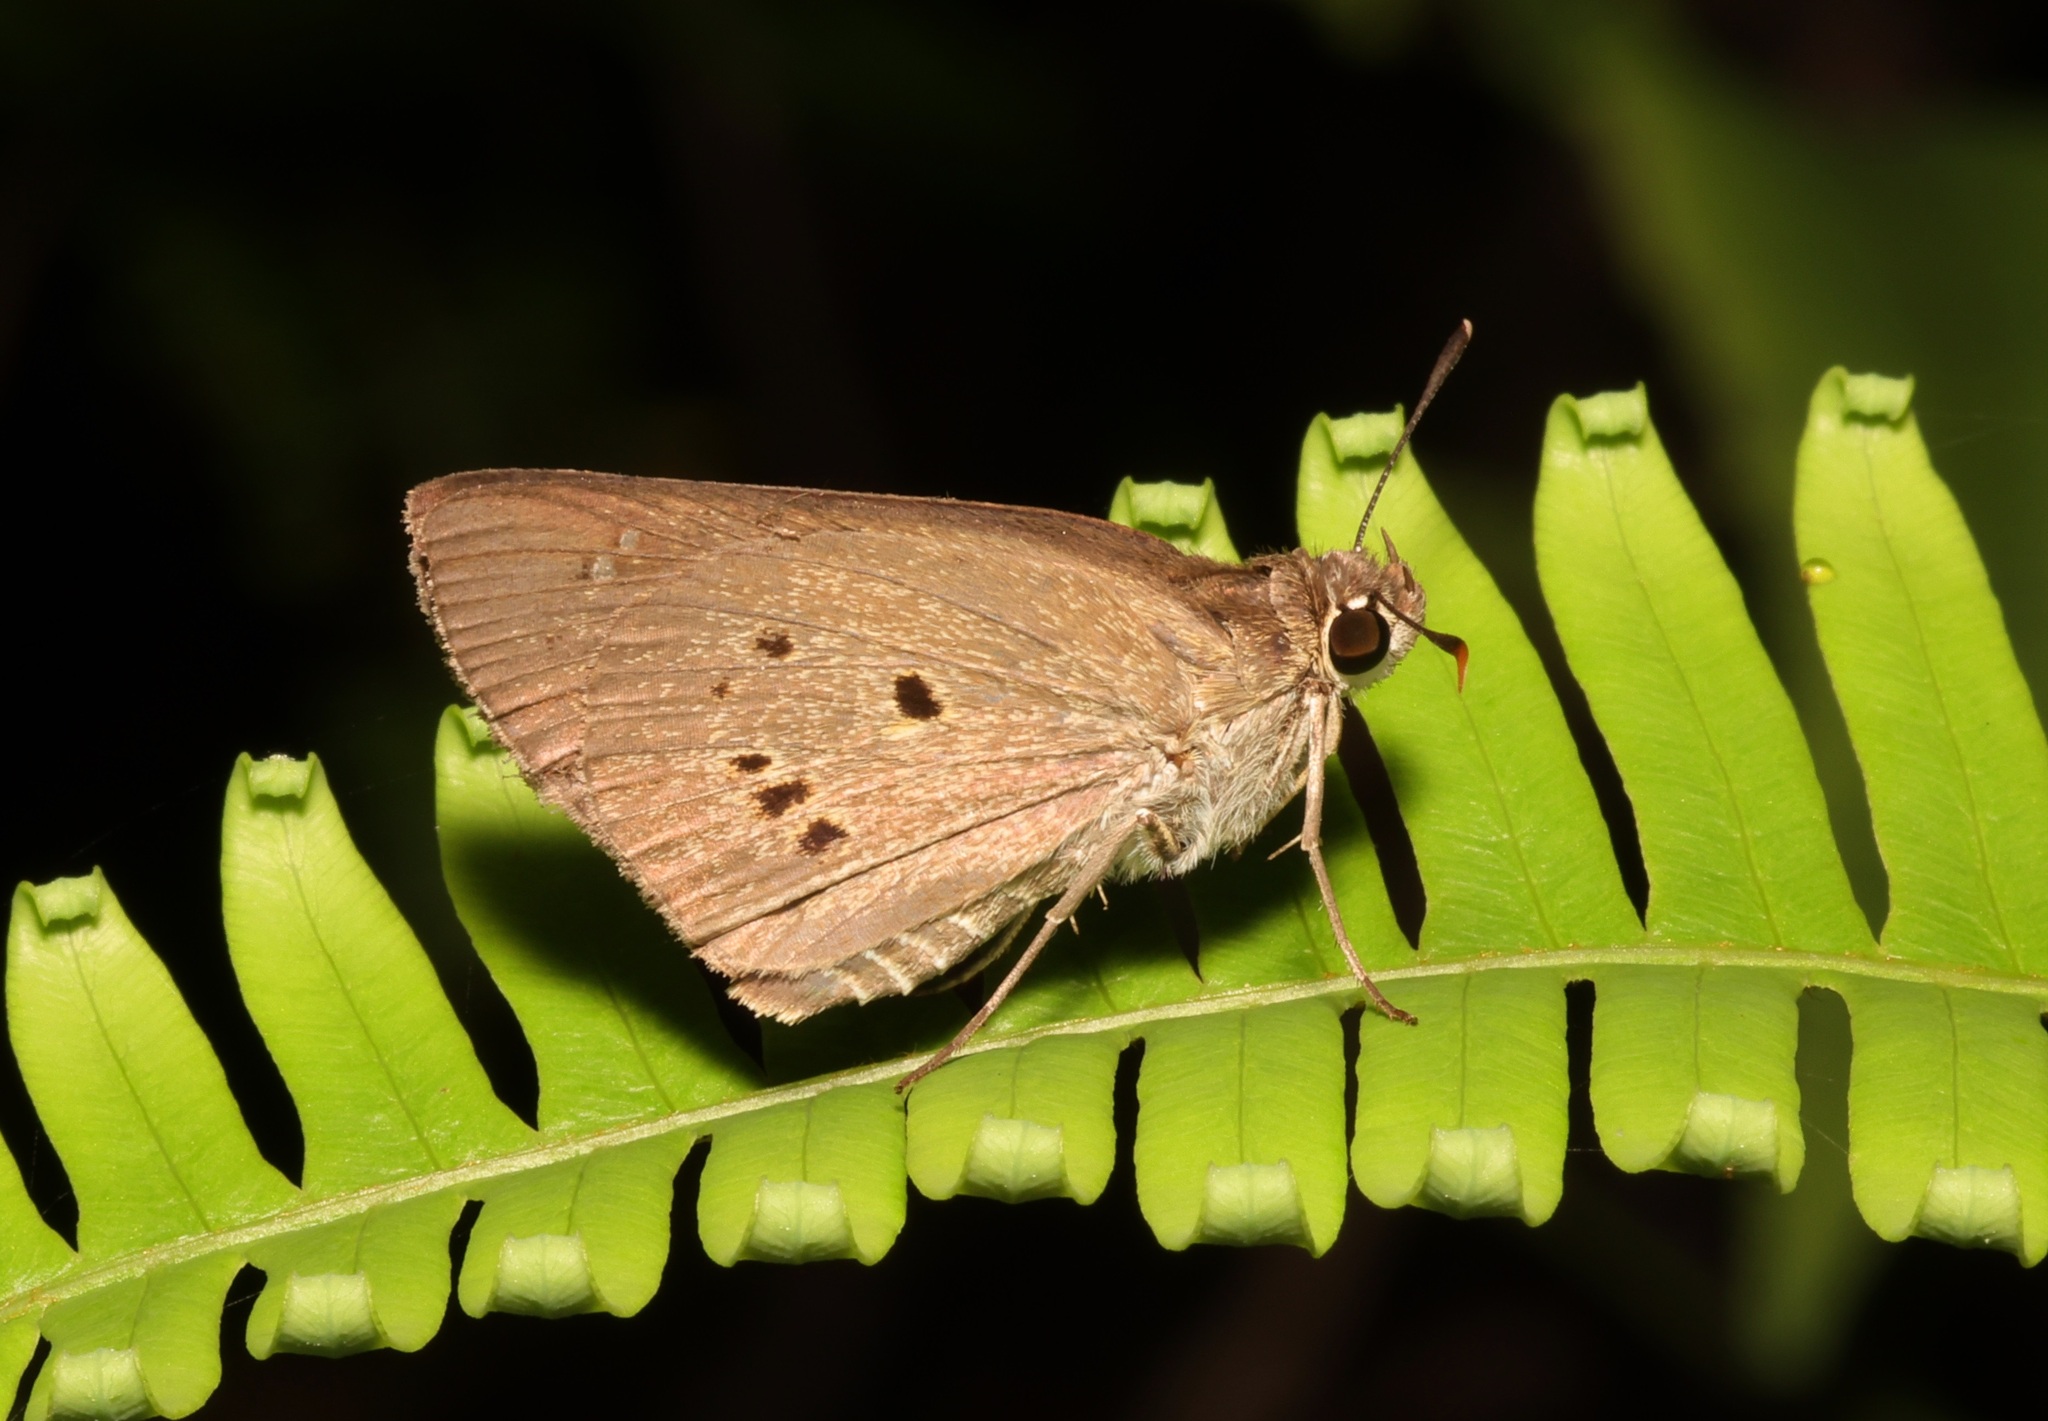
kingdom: Animalia
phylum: Arthropoda
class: Insecta
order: Lepidoptera
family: Hesperiidae
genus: Suastus
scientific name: Suastus gremius
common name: Indian palm bob
